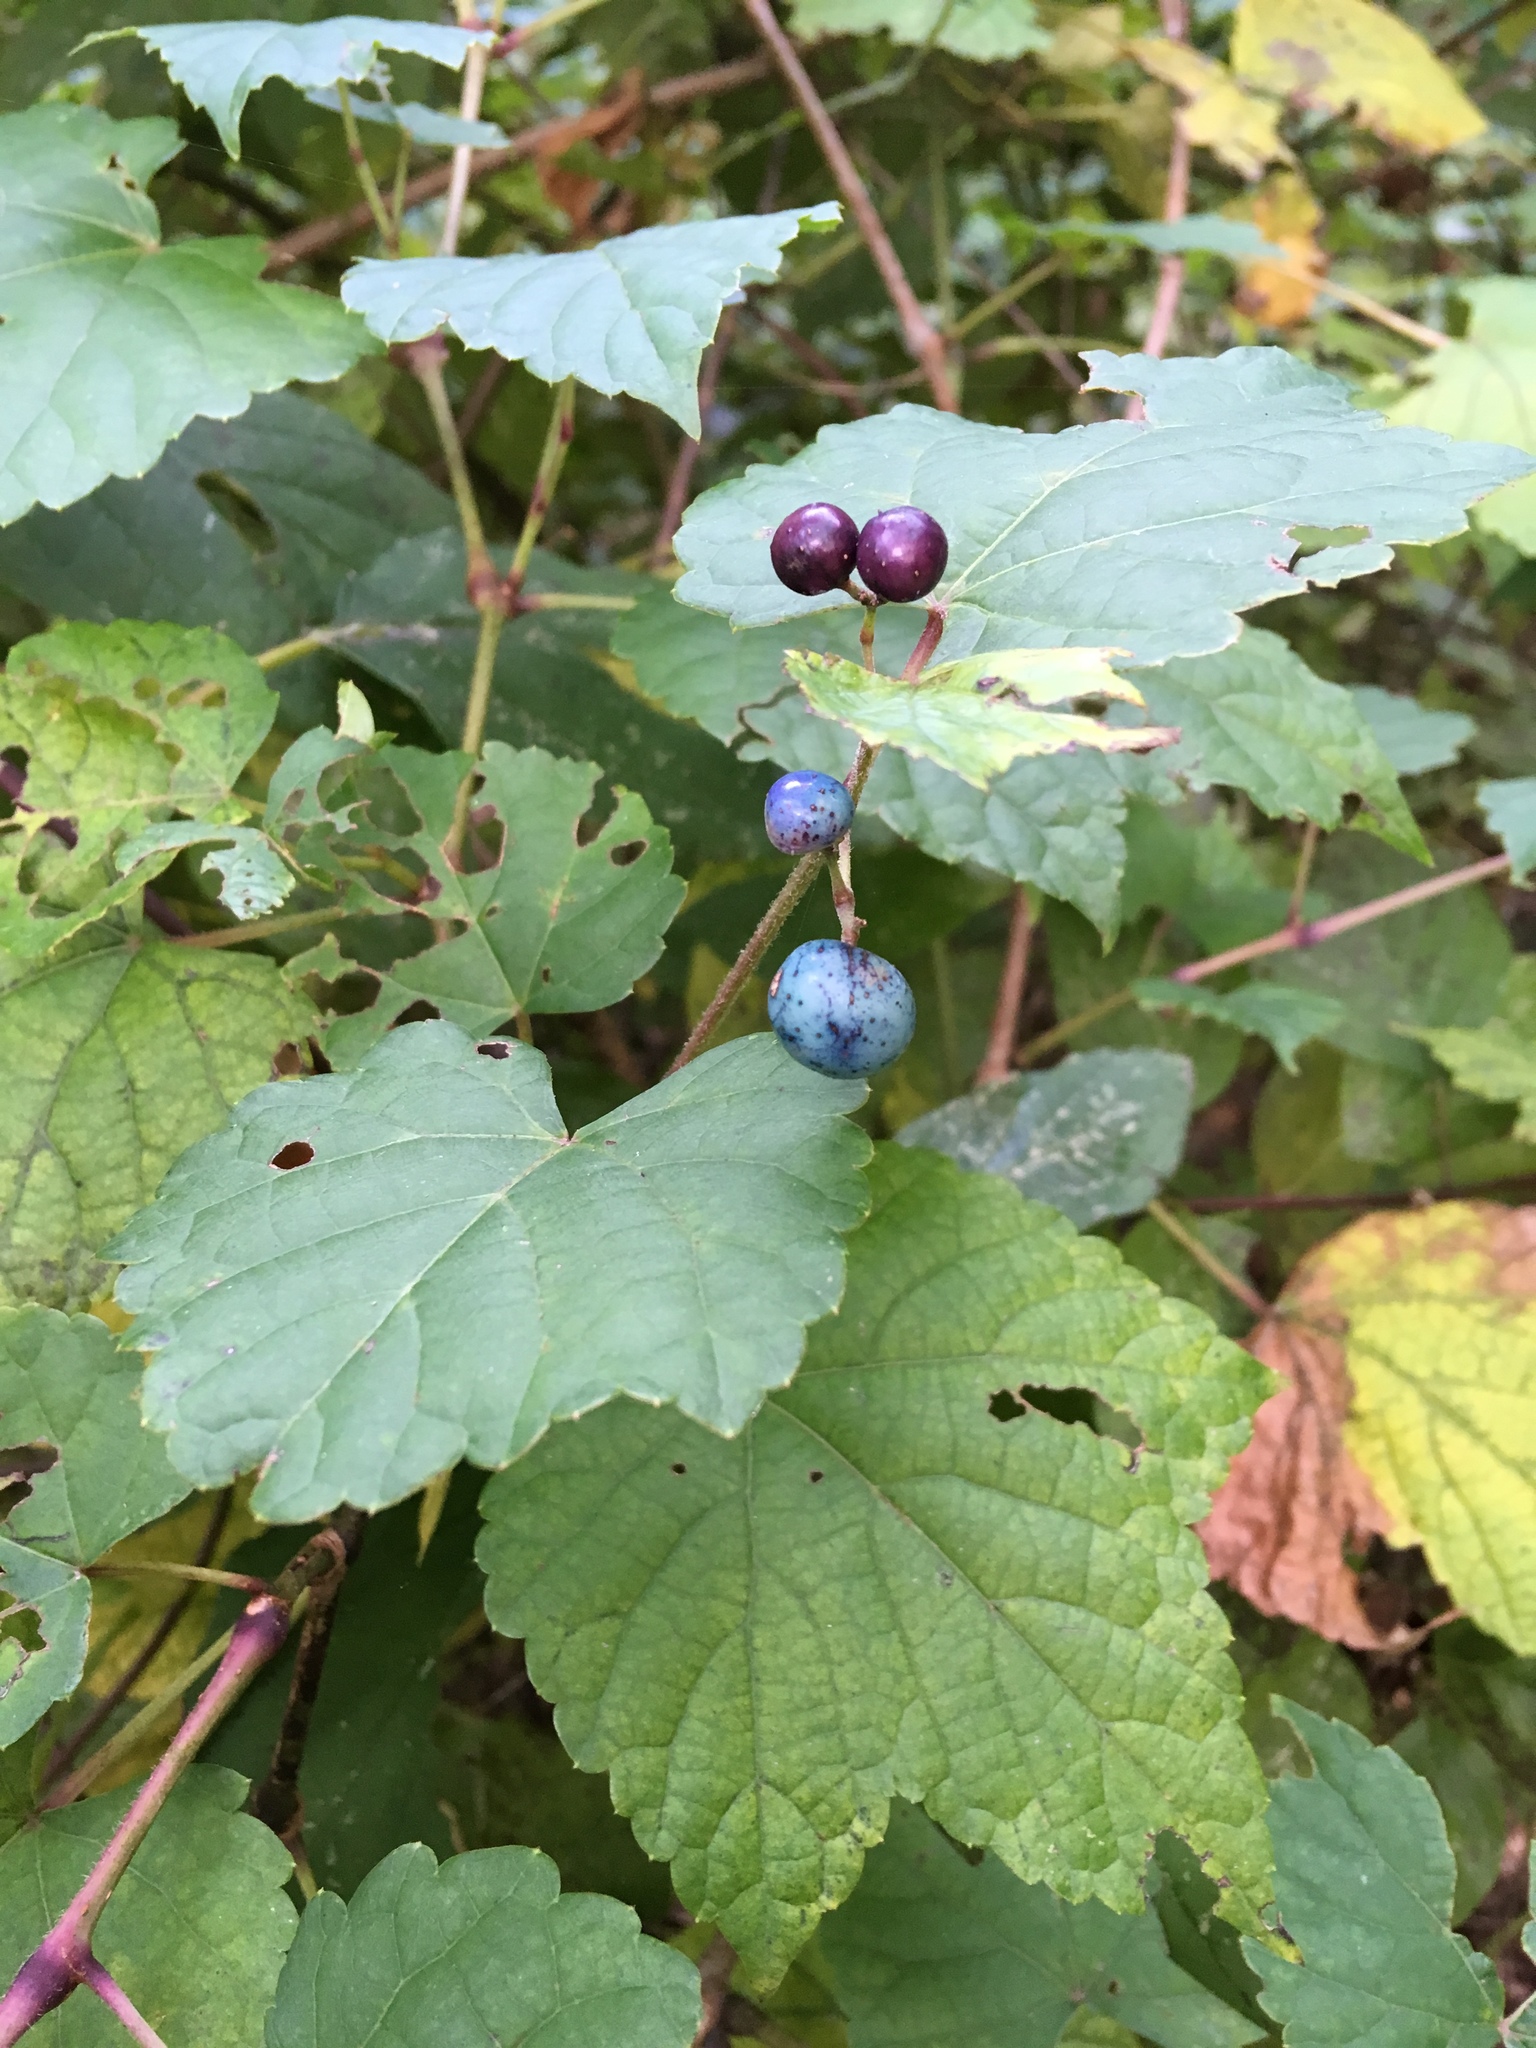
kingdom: Plantae
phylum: Tracheophyta
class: Magnoliopsida
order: Vitales
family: Vitaceae
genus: Ampelopsis
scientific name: Ampelopsis glandulosa
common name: Amur peppervine
